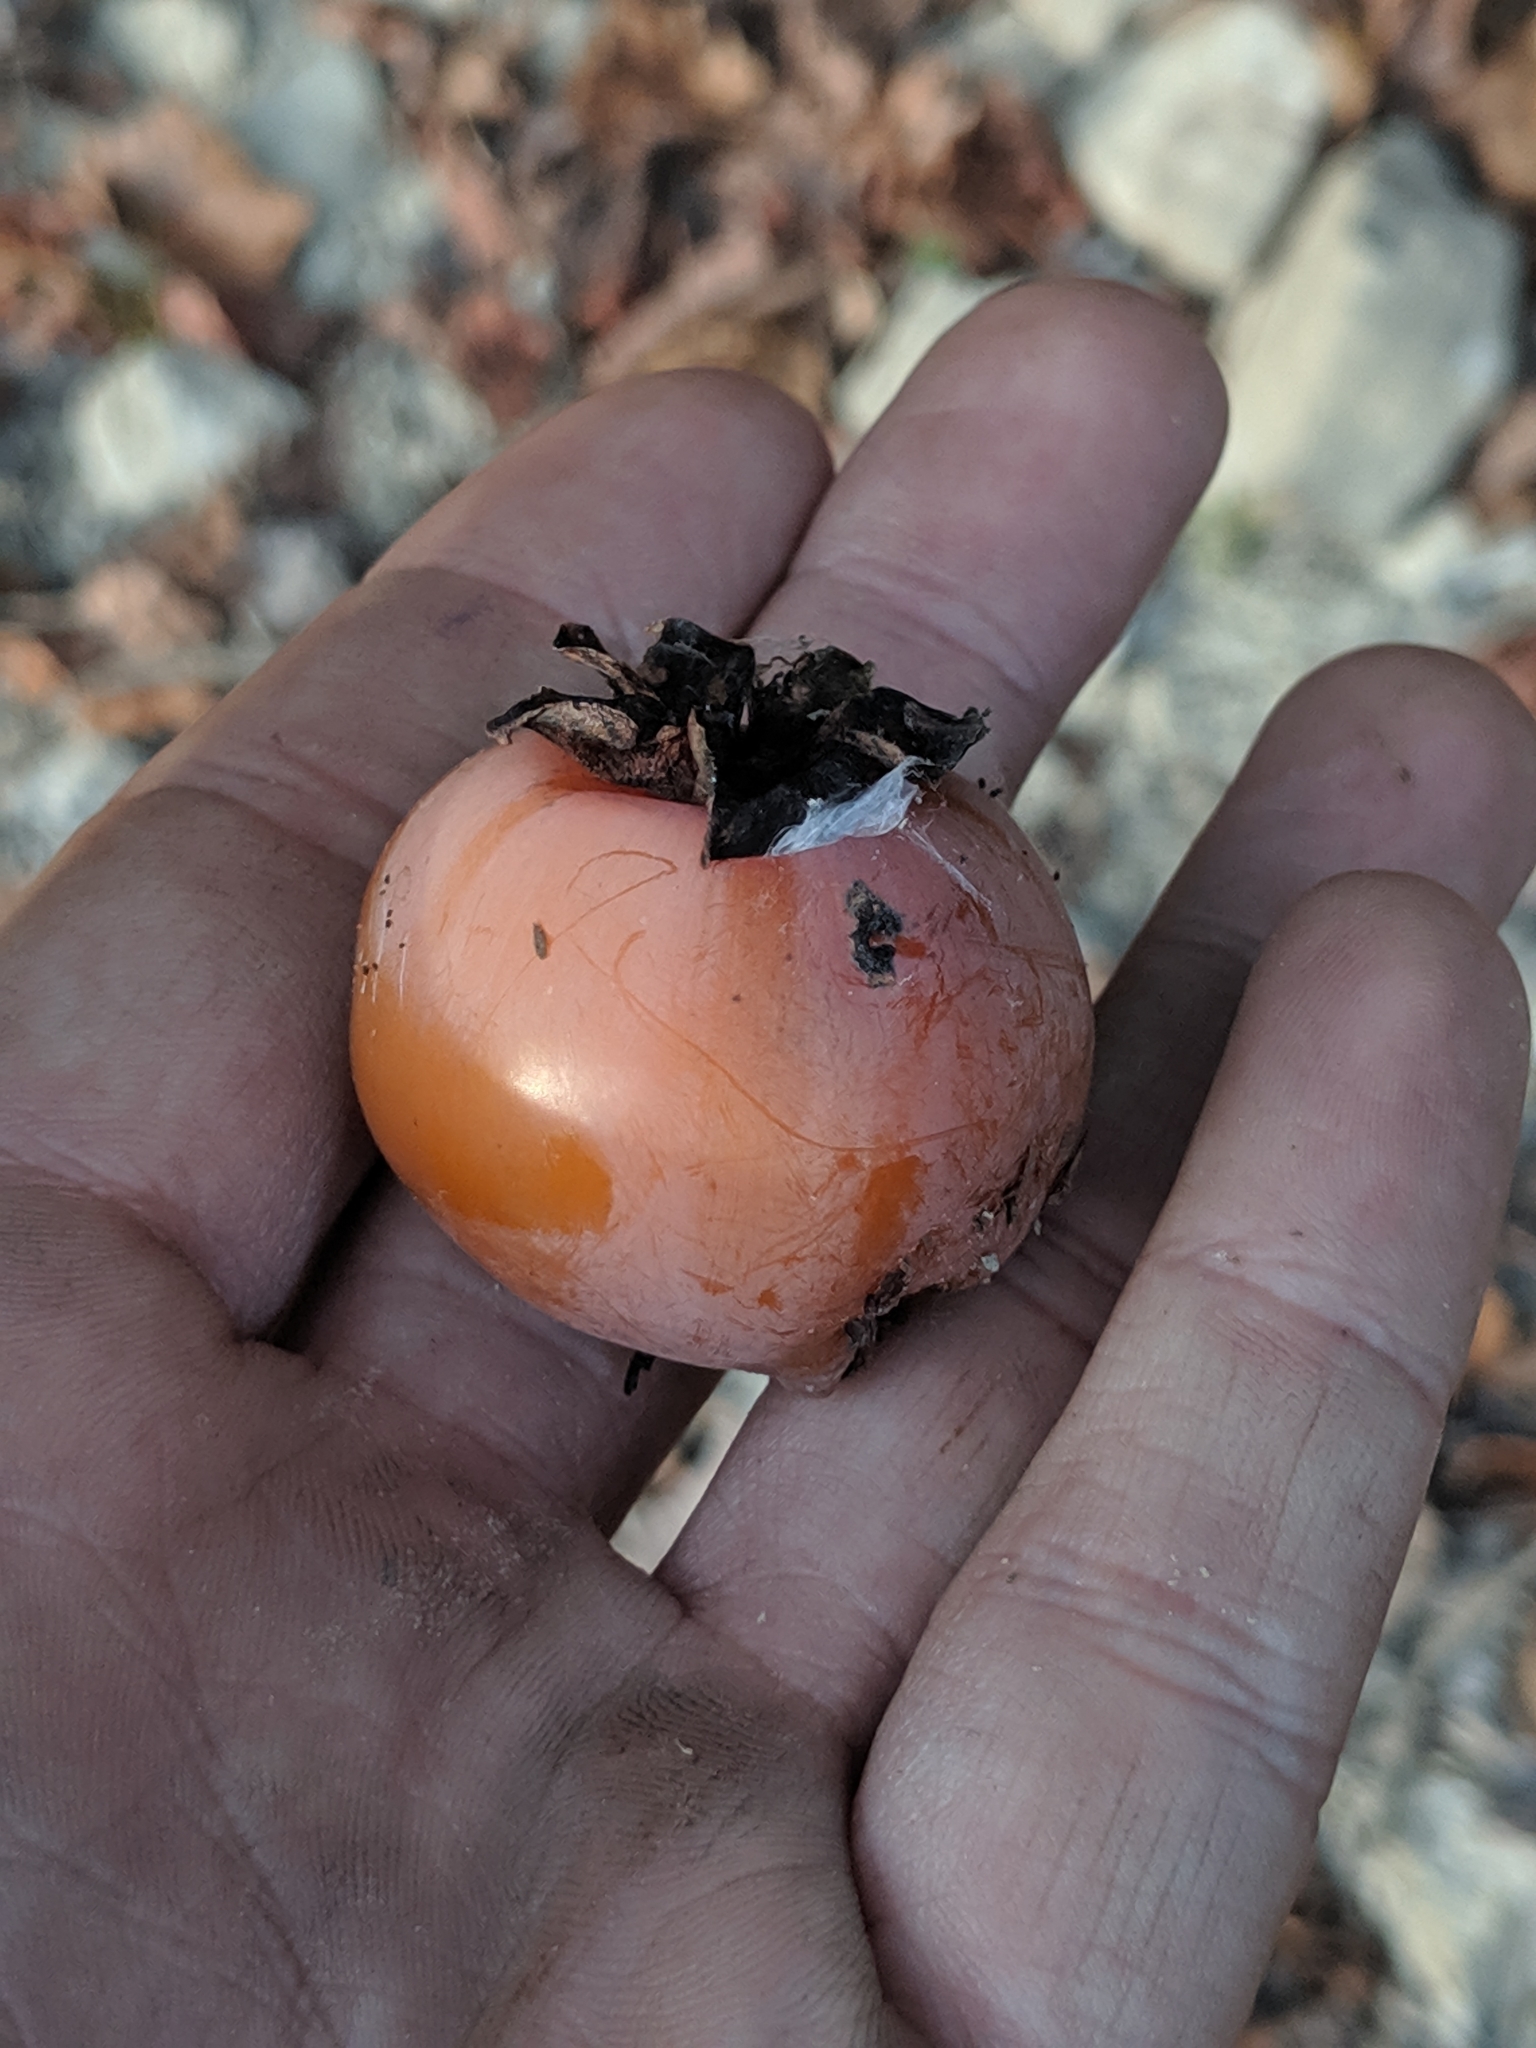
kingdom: Plantae
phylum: Tracheophyta
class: Magnoliopsida
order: Ericales
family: Ebenaceae
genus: Diospyros
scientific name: Diospyros virginiana
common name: Persimmon
